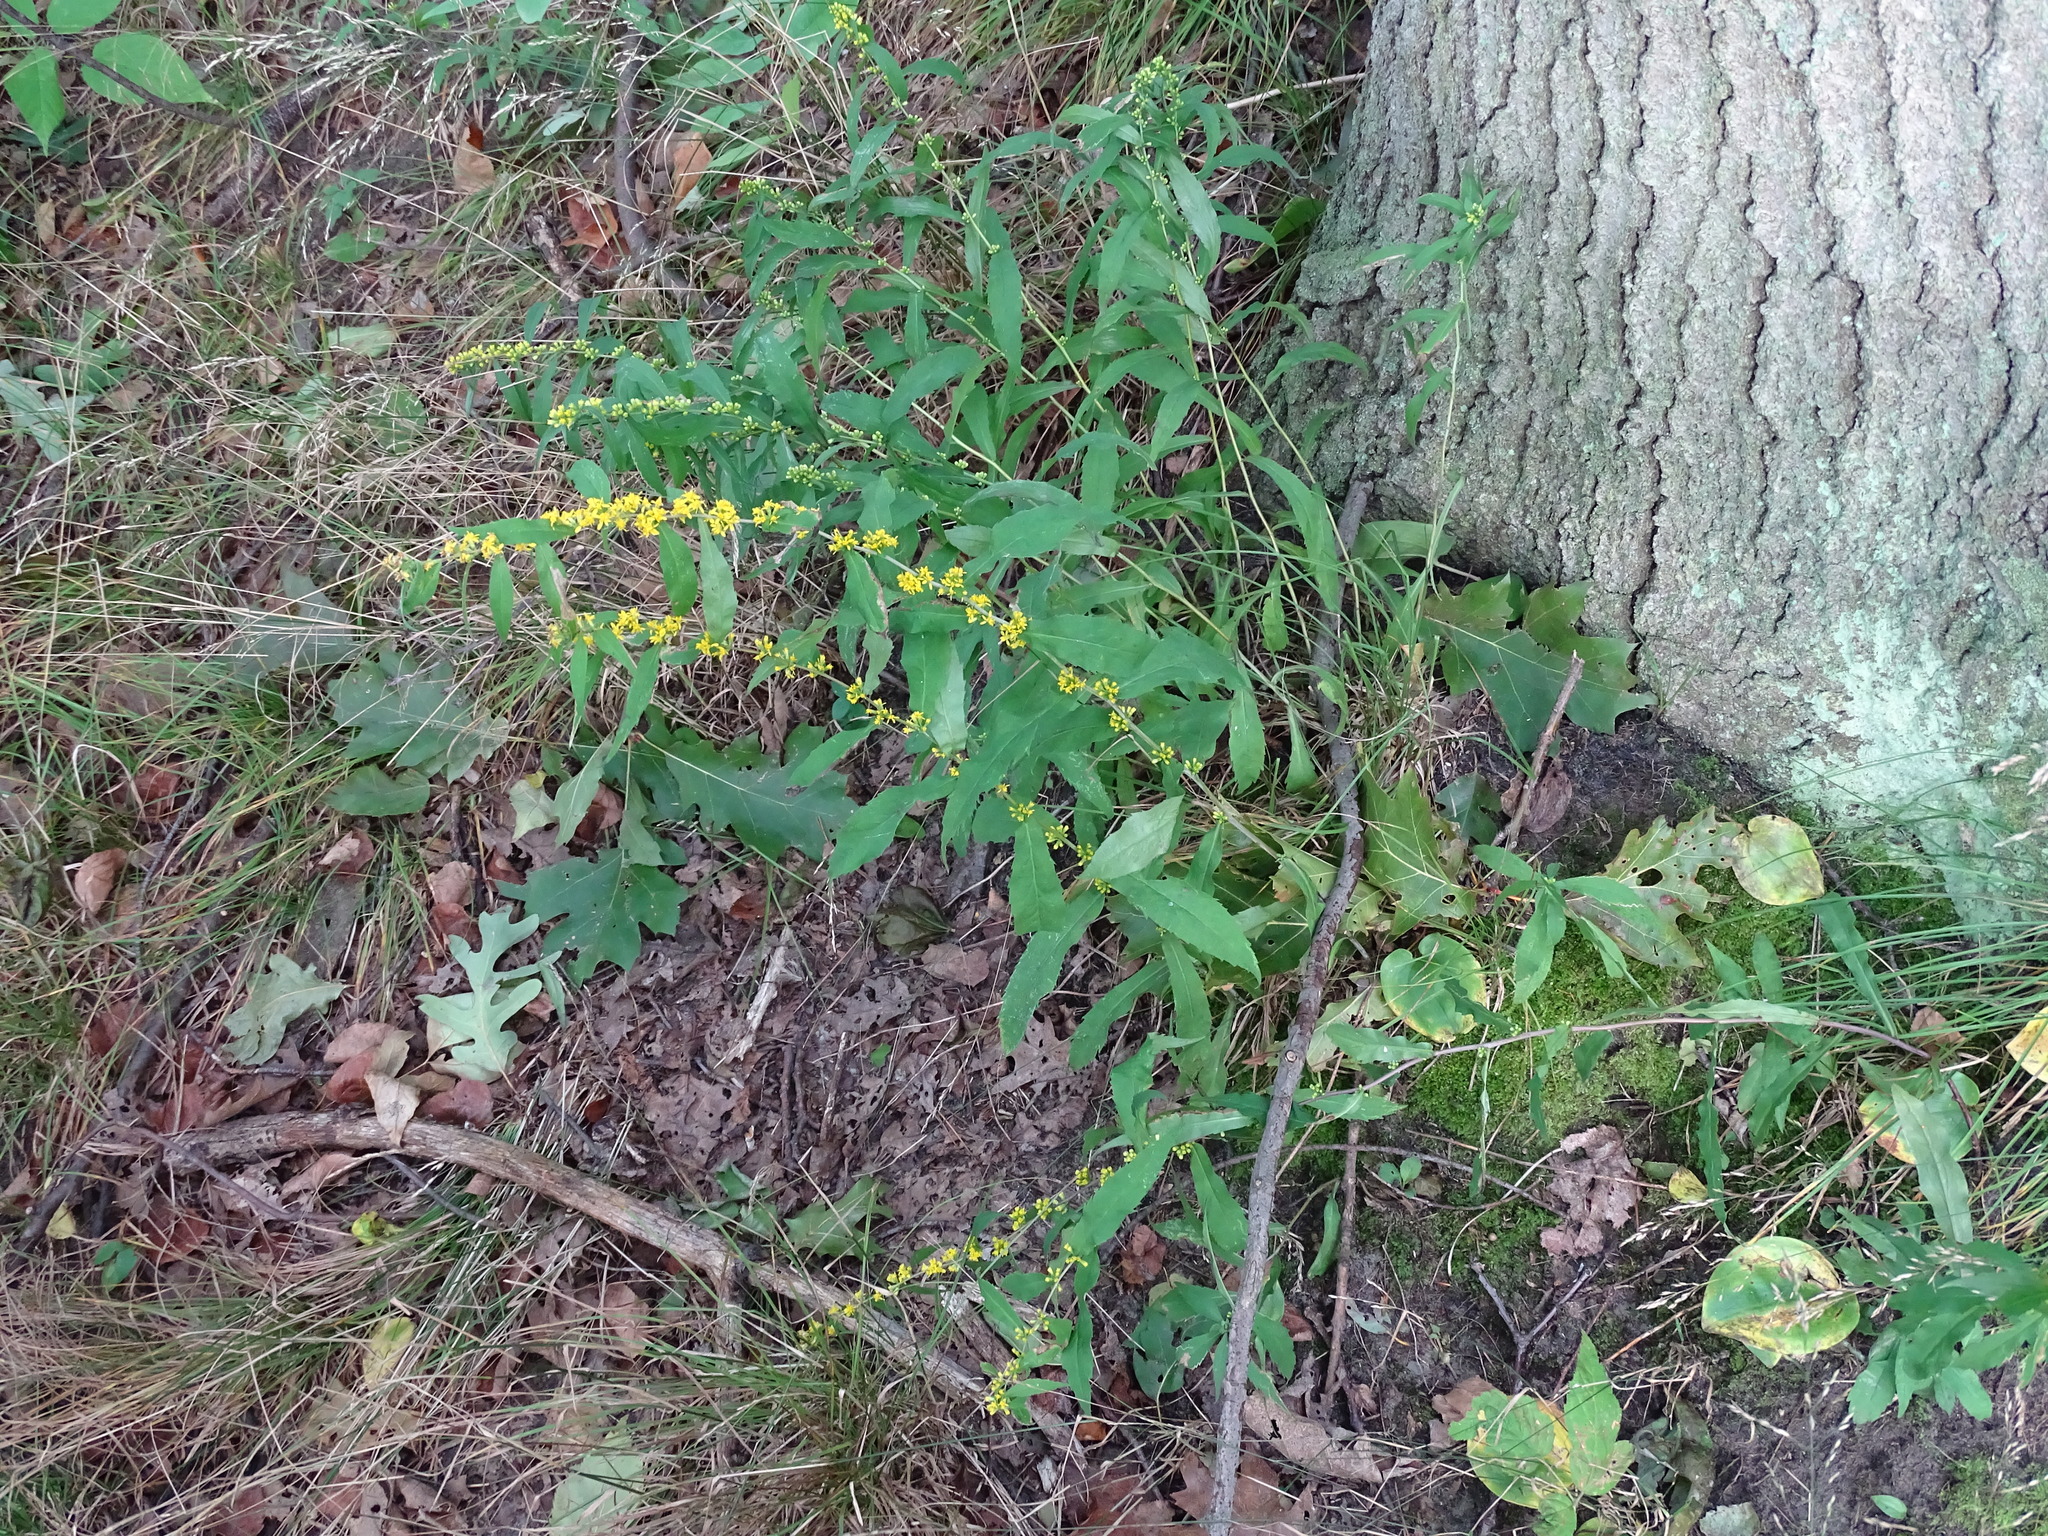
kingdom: Plantae
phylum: Tracheophyta
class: Magnoliopsida
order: Asterales
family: Asteraceae
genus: Solidago
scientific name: Solidago caesia
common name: Woodland goldenrod
